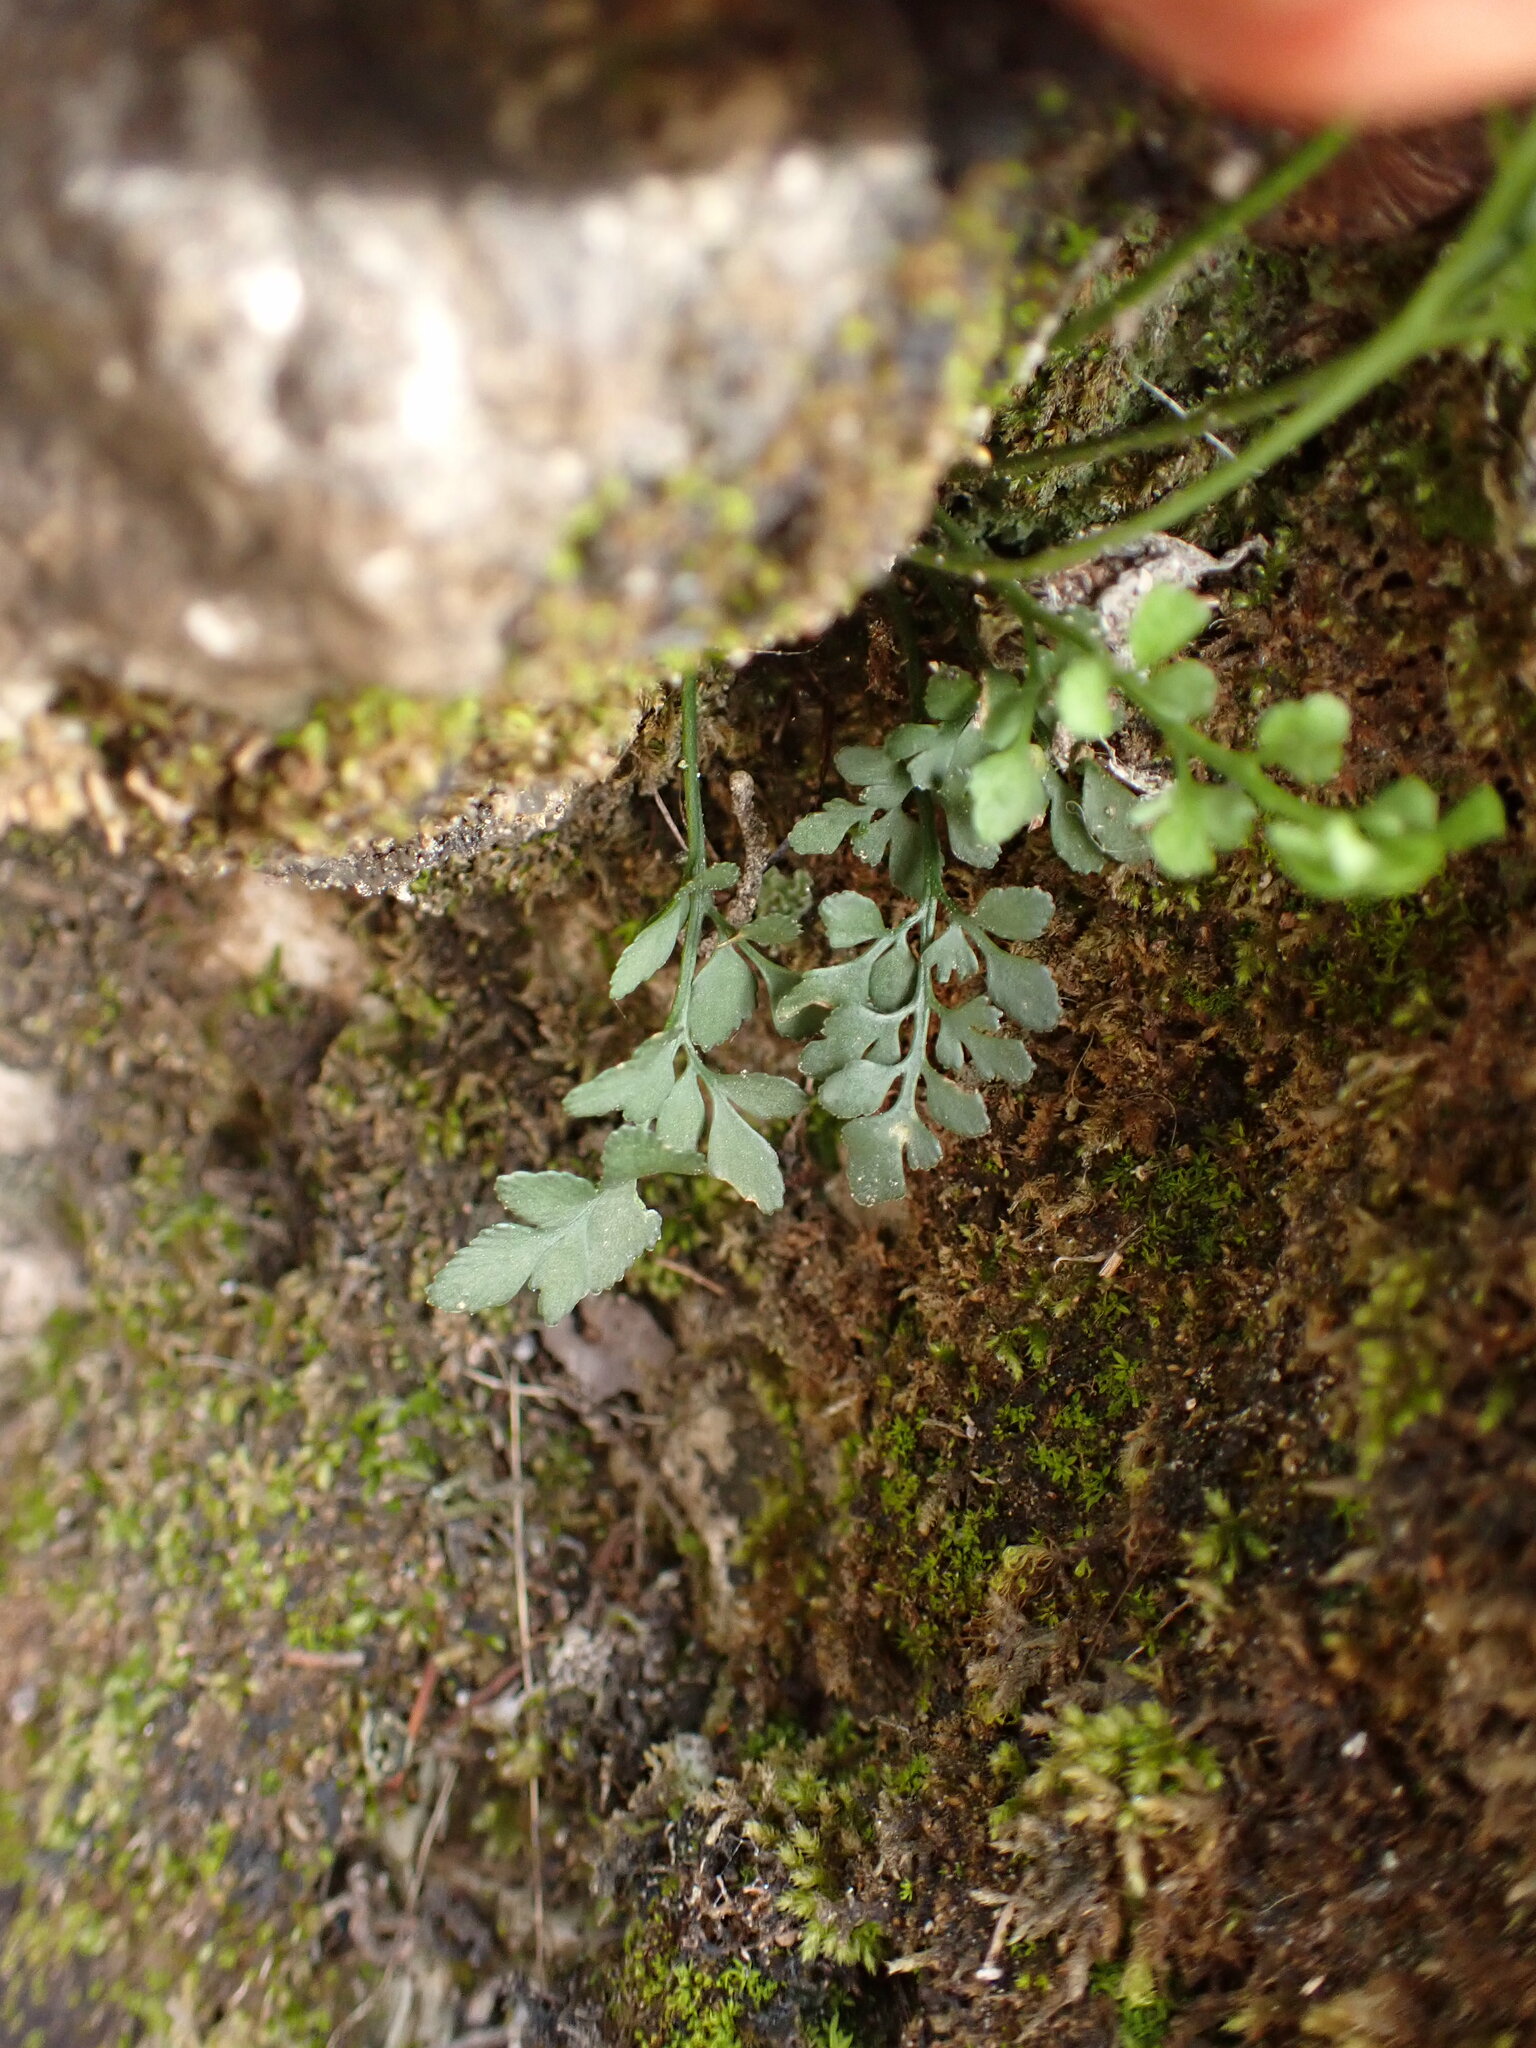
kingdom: Plantae
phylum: Tracheophyta
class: Polypodiopsida
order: Polypodiales
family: Aspleniaceae
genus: Asplenium
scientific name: Asplenium ruta-muraria
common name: Wall-rue
